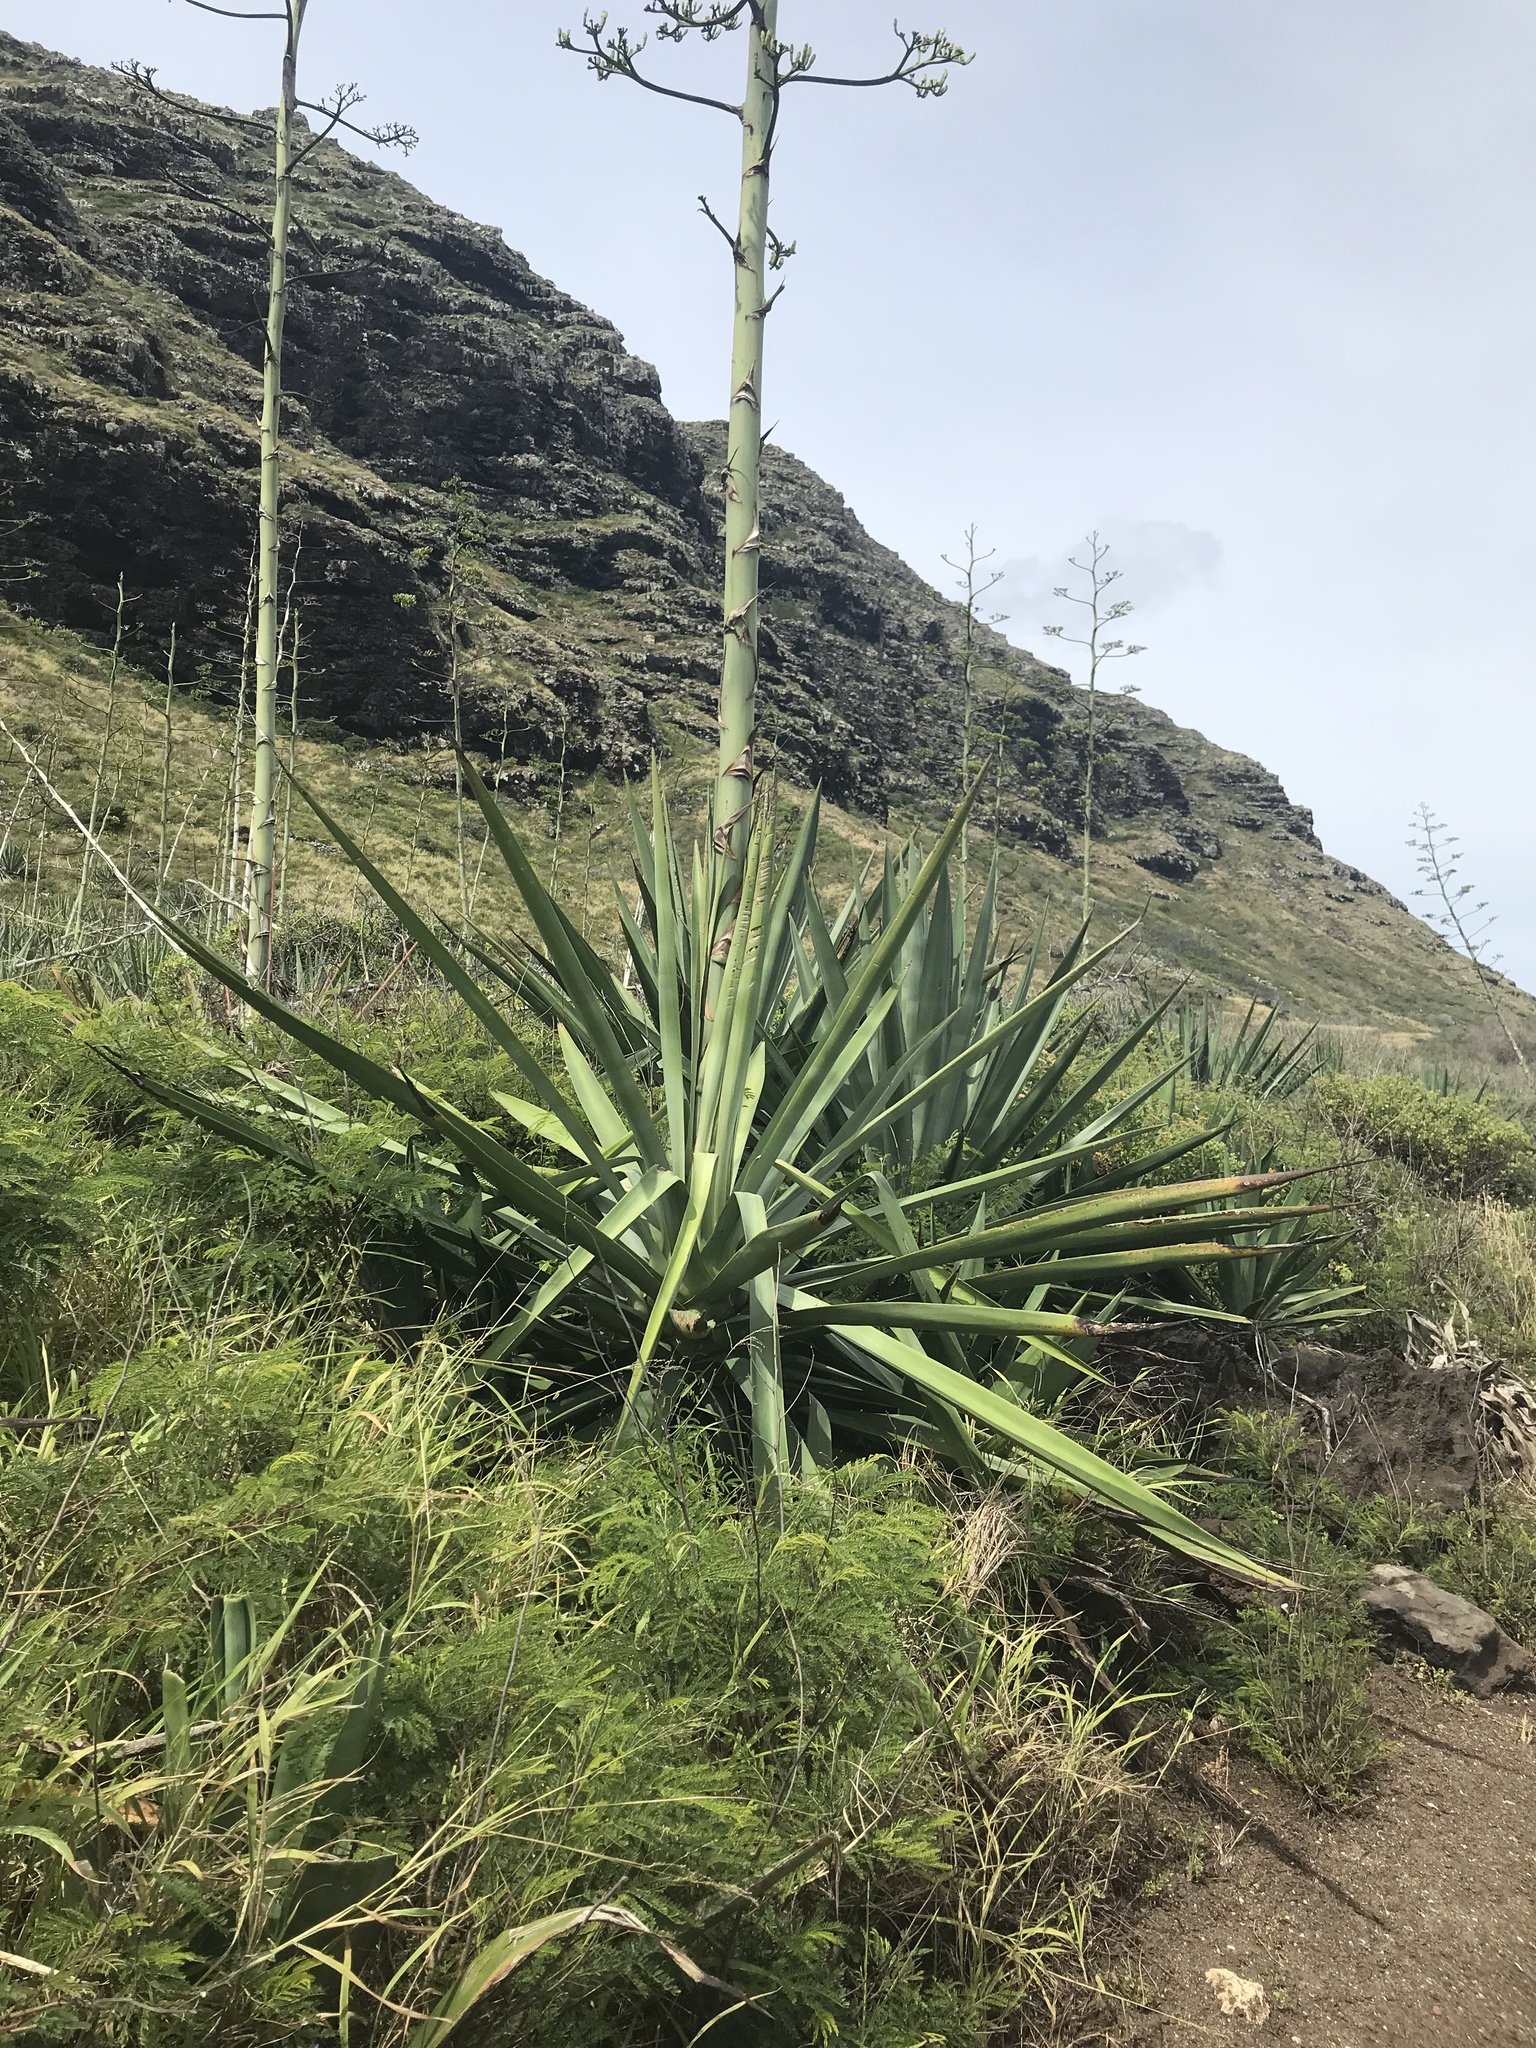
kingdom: Plantae
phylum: Tracheophyta
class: Liliopsida
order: Asparagales
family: Asparagaceae
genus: Agave
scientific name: Agave sisalana
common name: Sisal hemp
